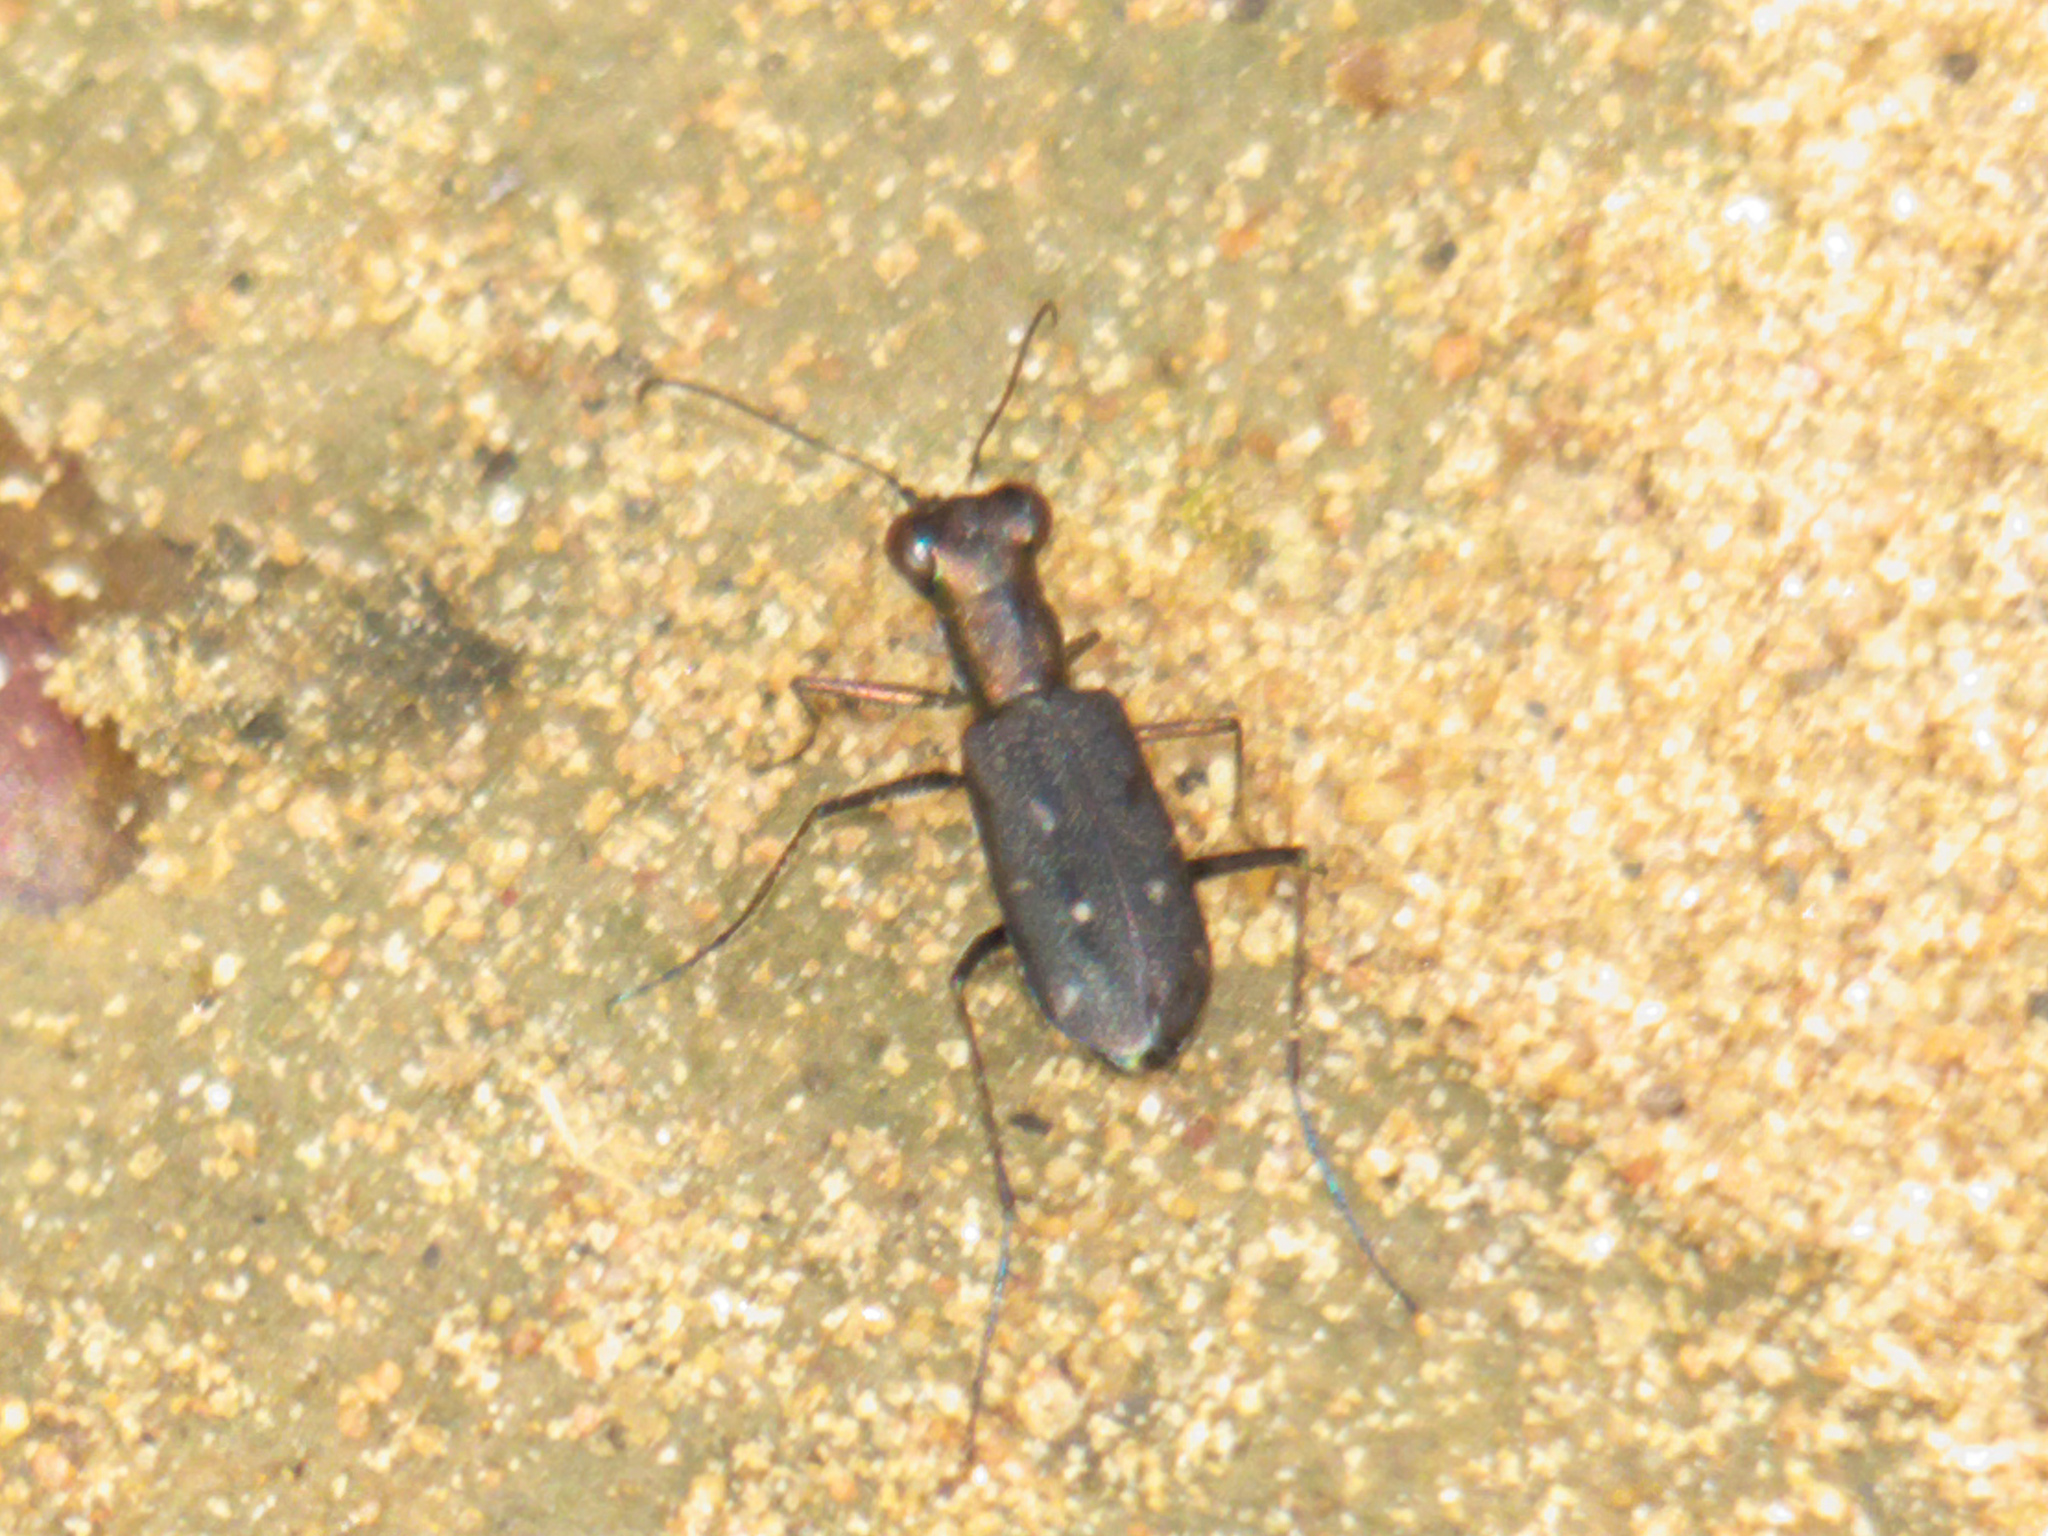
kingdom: Animalia
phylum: Arthropoda
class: Insecta
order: Coleoptera
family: Carabidae
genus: Cylindera
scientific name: Cylindera viduata
